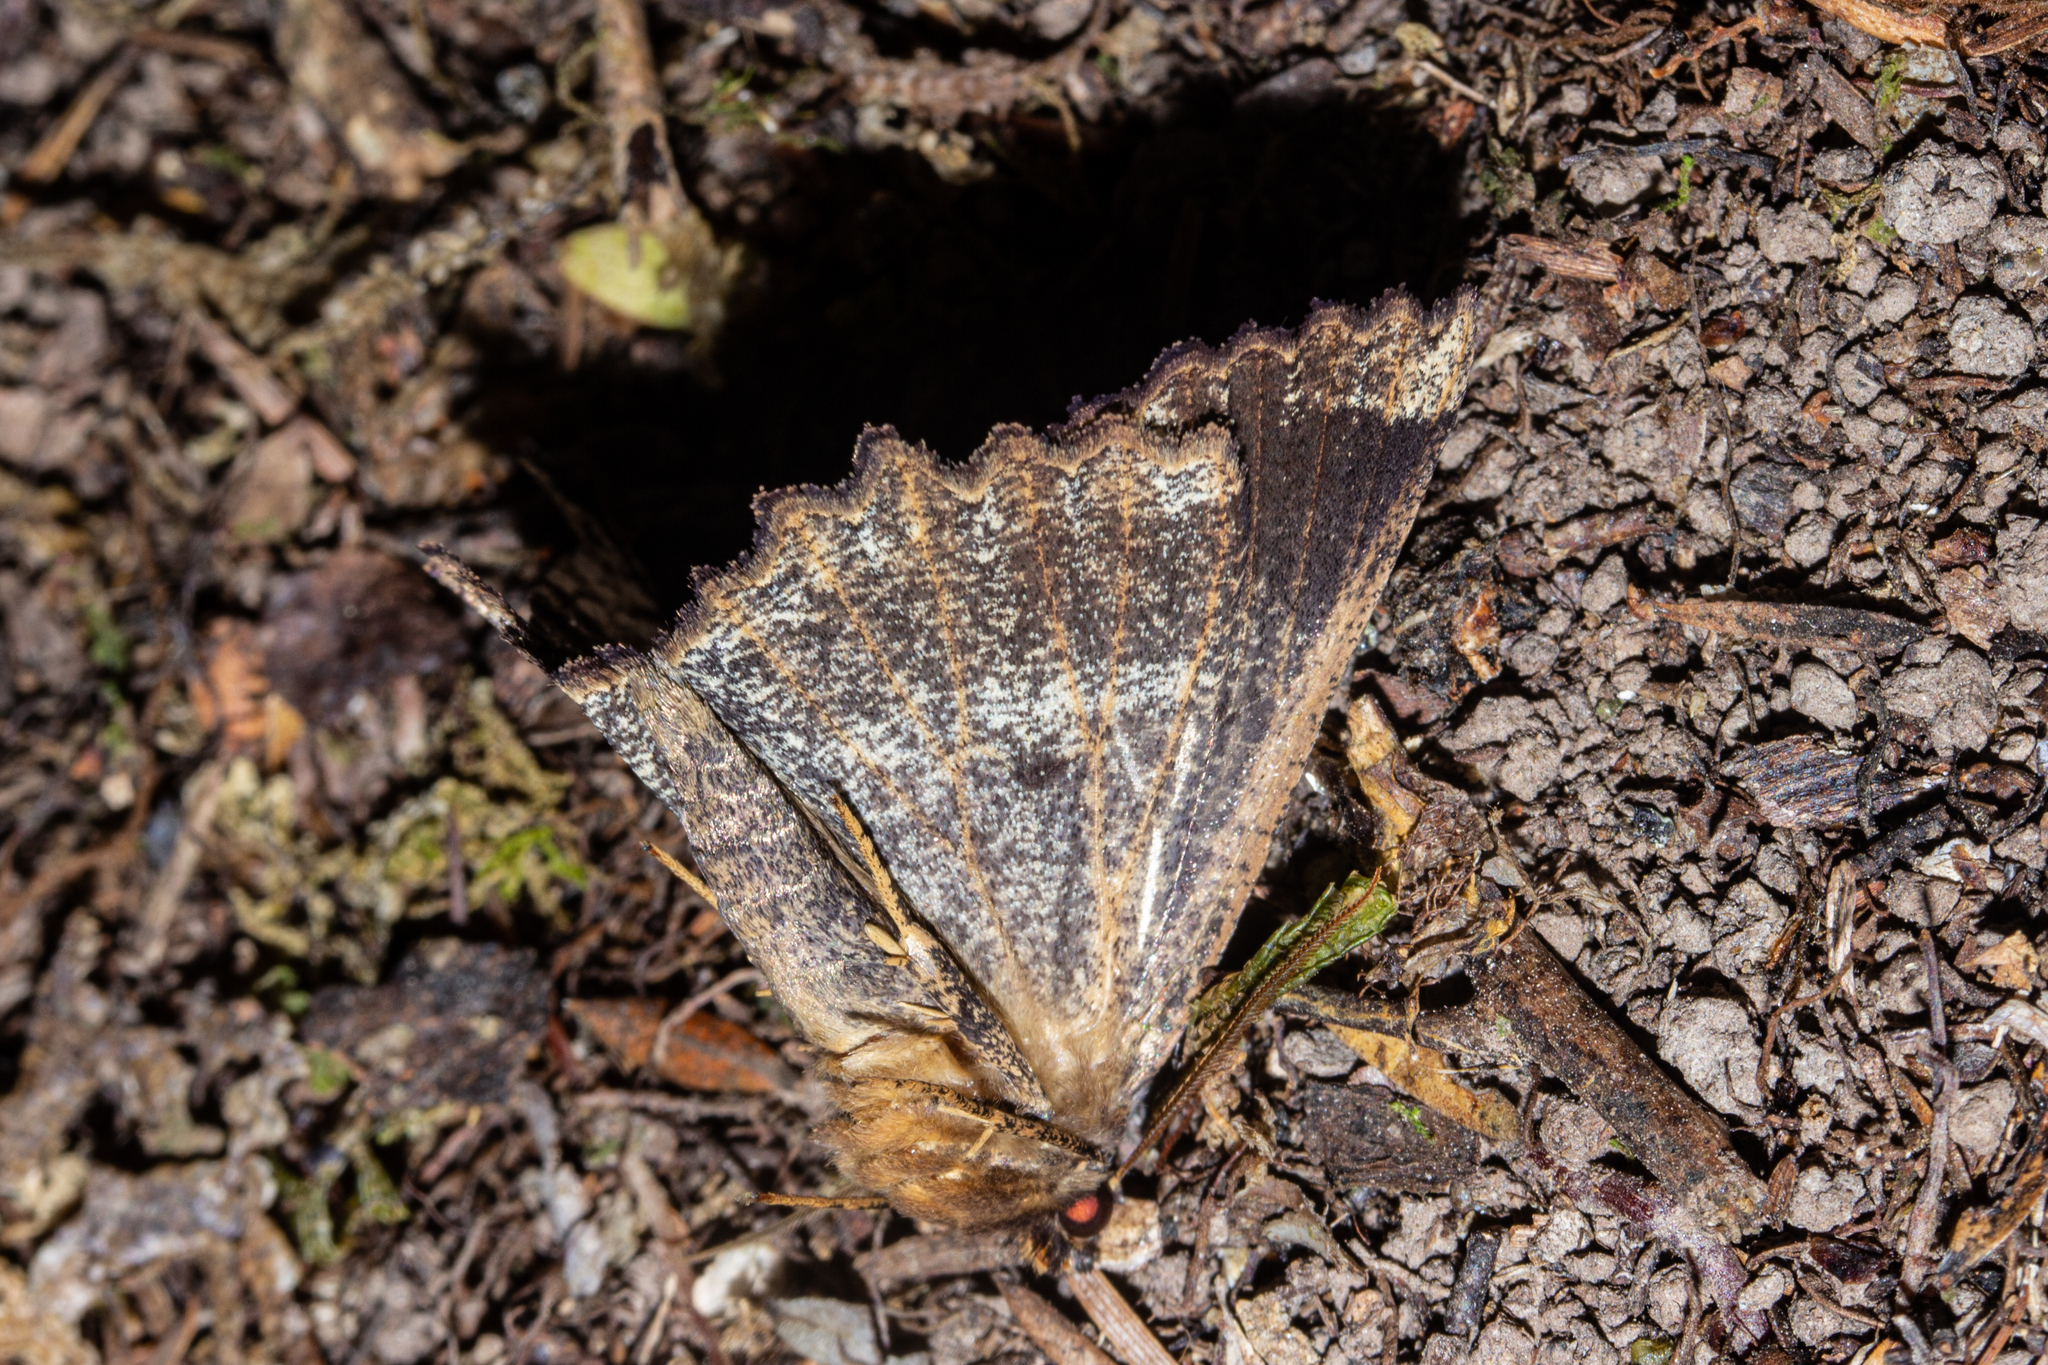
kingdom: Animalia
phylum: Arthropoda
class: Insecta
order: Lepidoptera
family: Geometridae
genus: Gellonia
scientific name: Gellonia dejectaria
